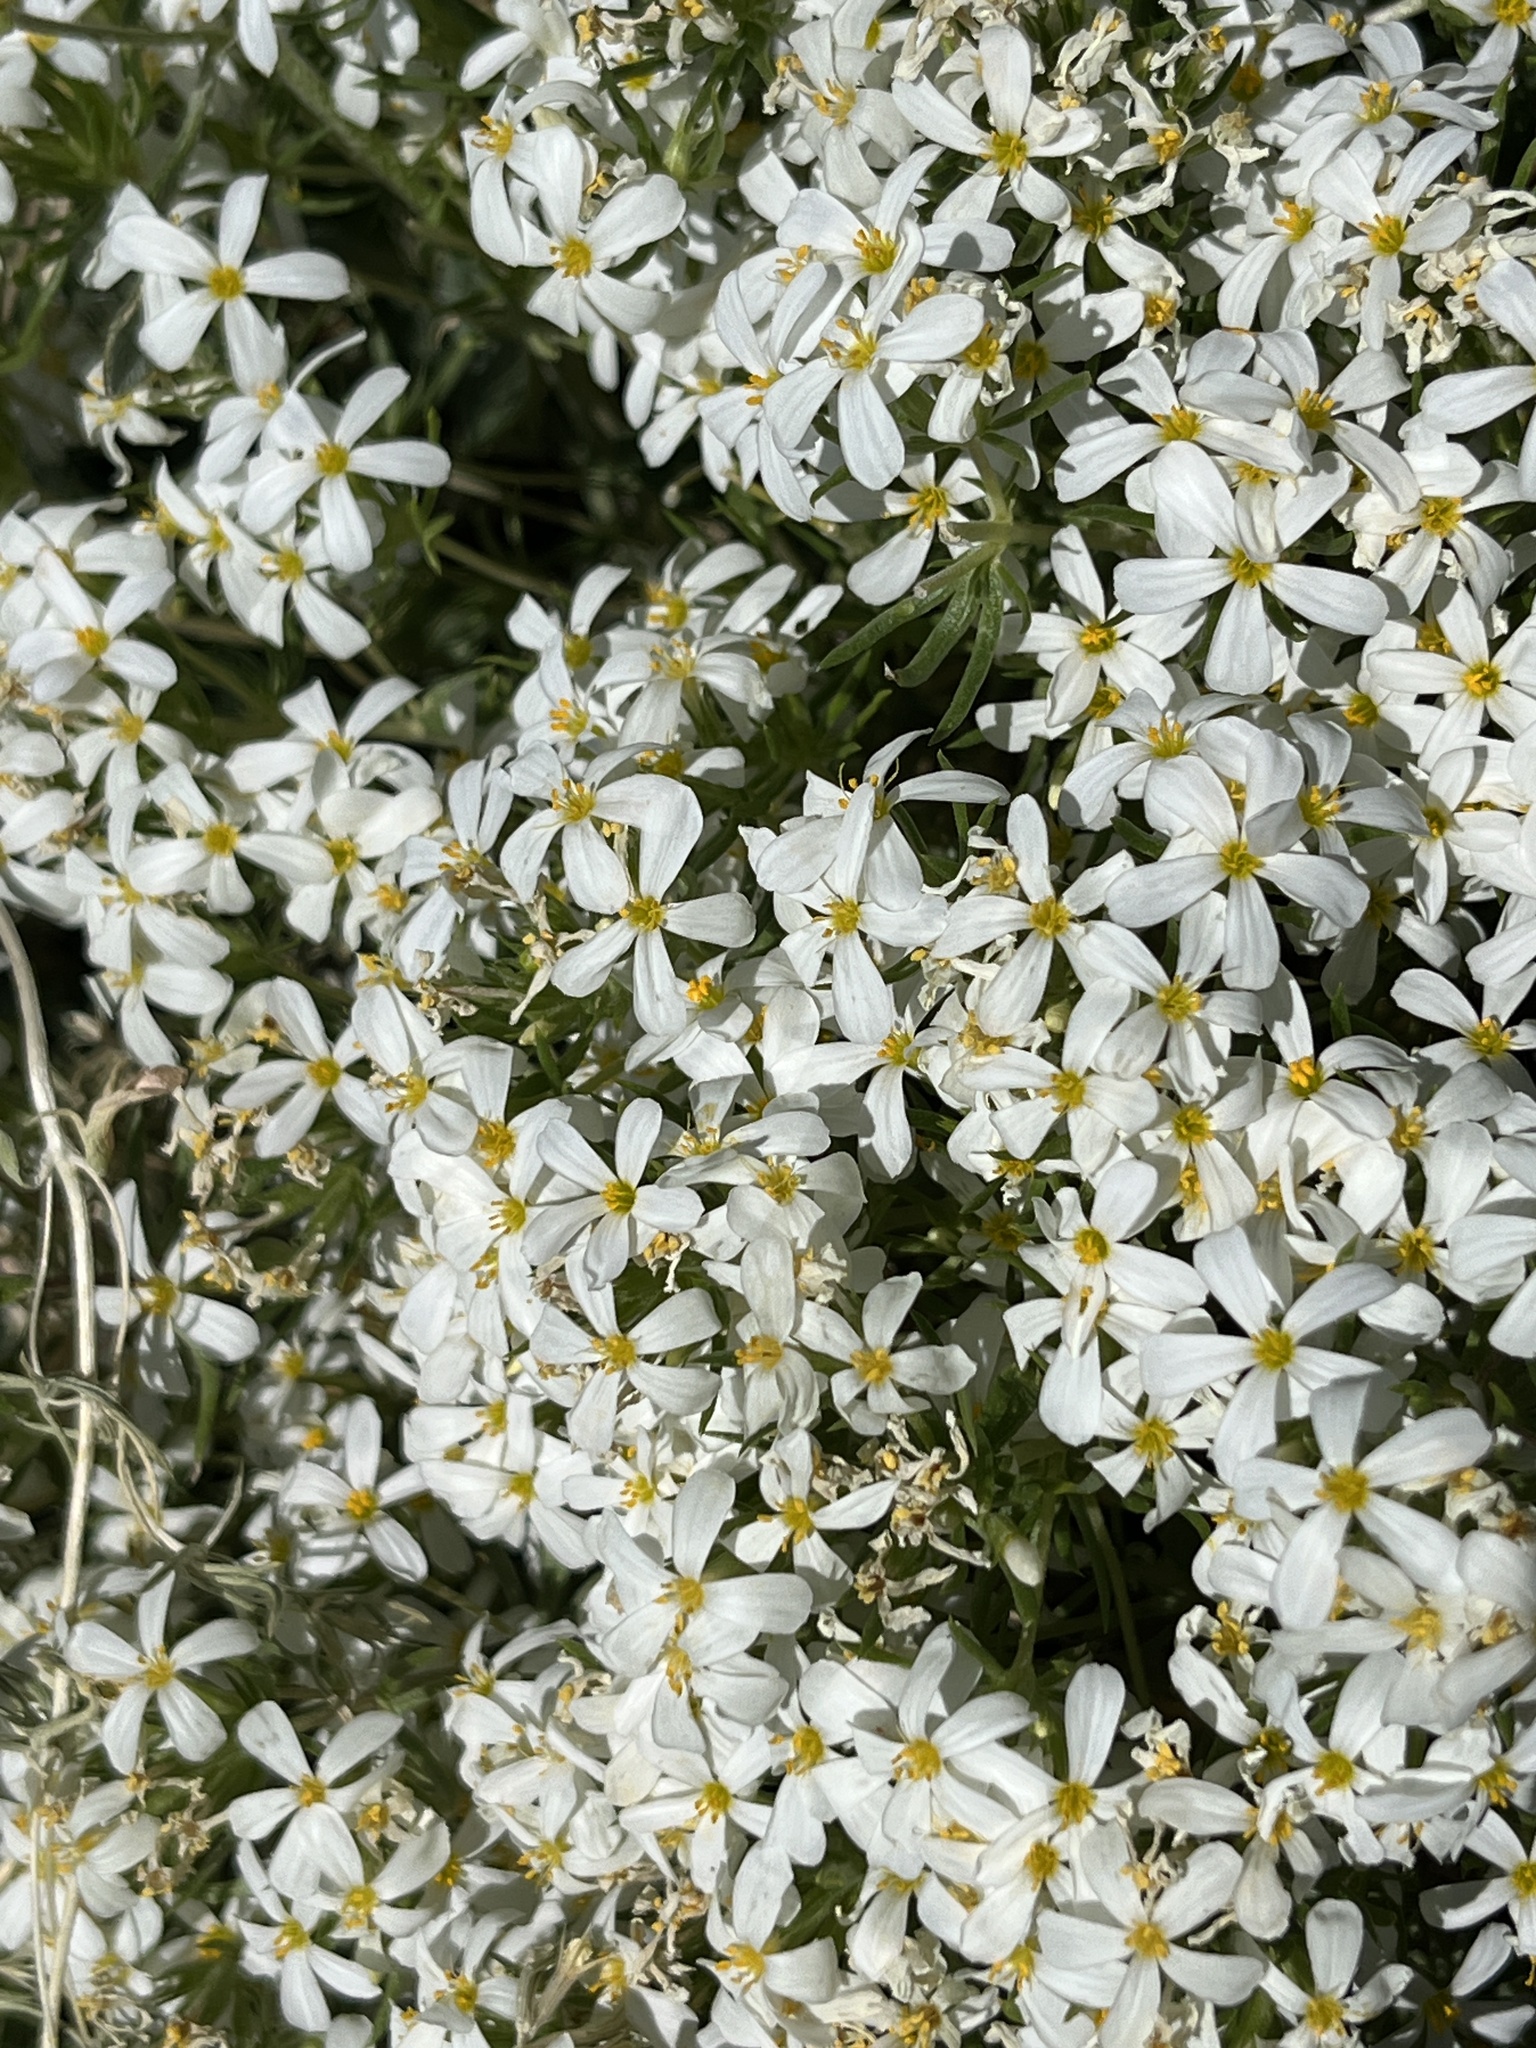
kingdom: Plantae
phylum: Tracheophyta
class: Magnoliopsida
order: Ericales
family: Polemoniaceae
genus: Leptosiphon
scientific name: Leptosiphon nuttallii
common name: Nuttall's linanthus
